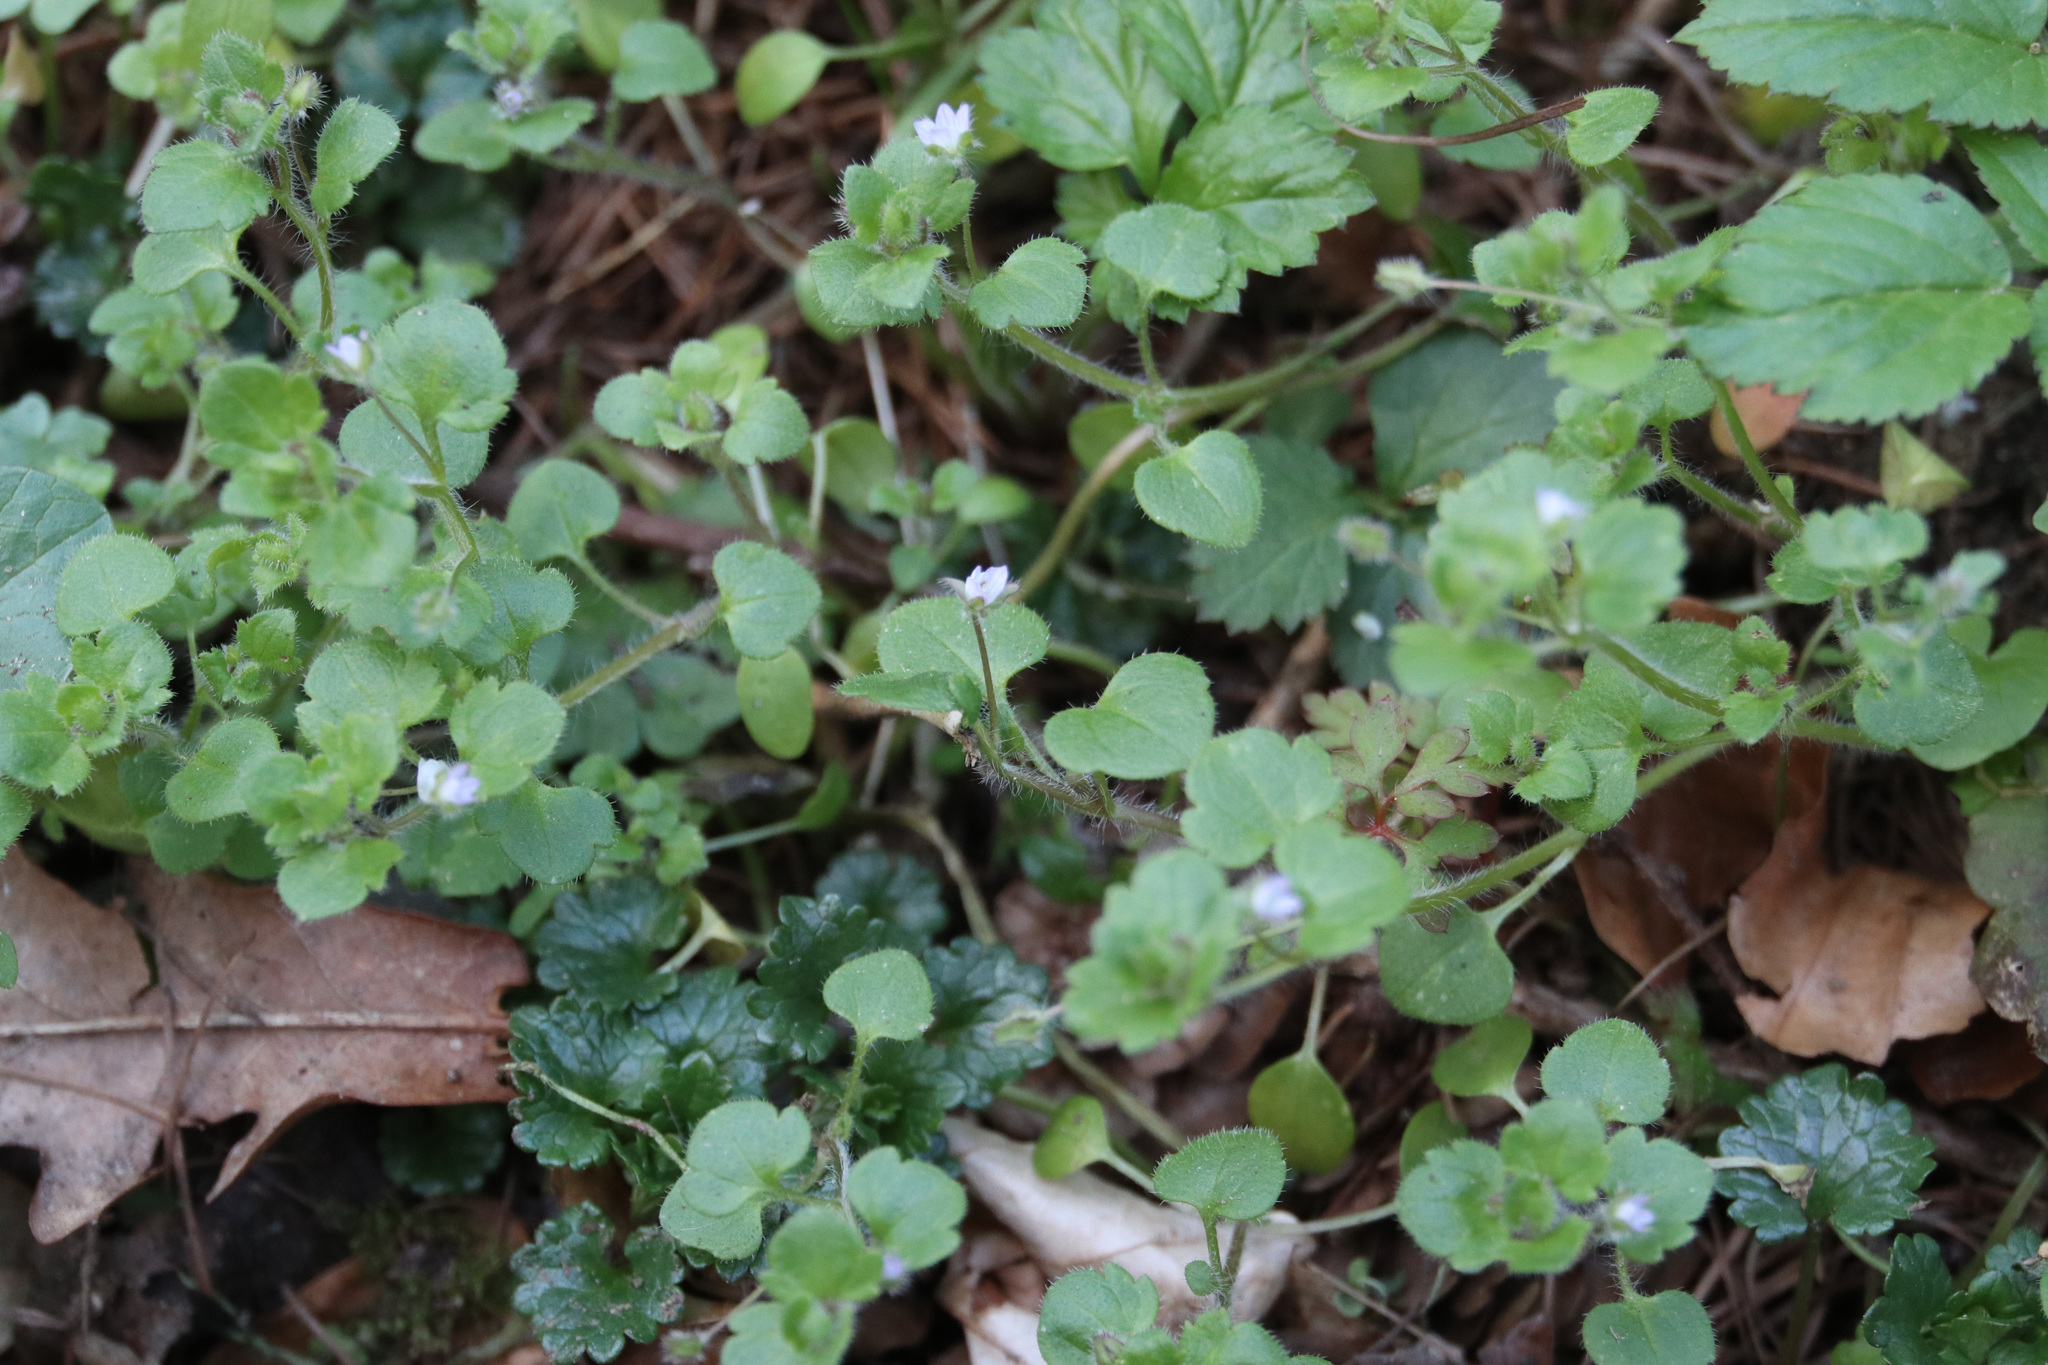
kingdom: Plantae
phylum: Tracheophyta
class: Magnoliopsida
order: Lamiales
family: Plantaginaceae
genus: Veronica
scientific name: Veronica sublobata
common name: False ivy-leaved speedwell
